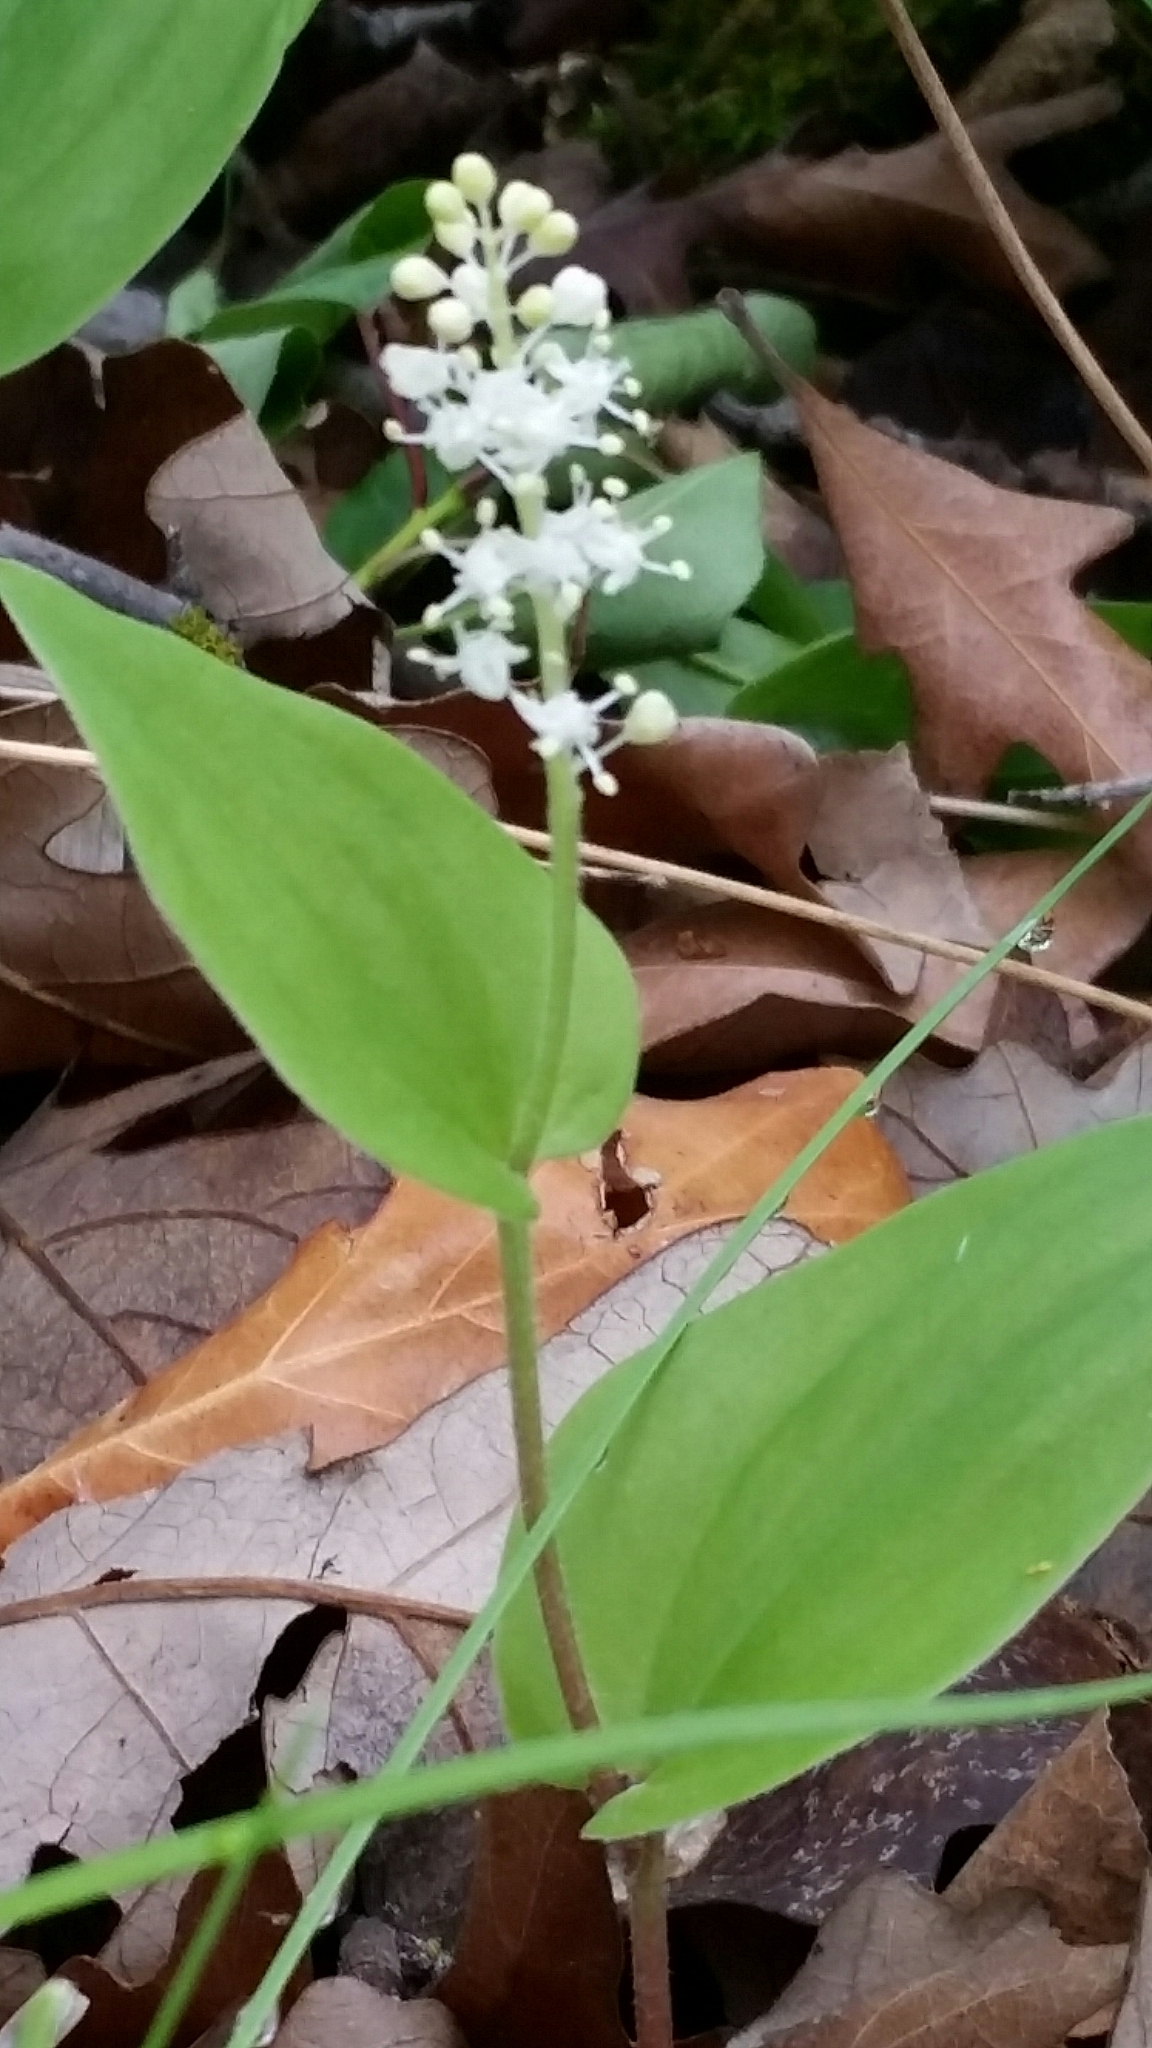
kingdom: Plantae
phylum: Tracheophyta
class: Liliopsida
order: Asparagales
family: Asparagaceae
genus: Maianthemum
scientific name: Maianthemum canadense
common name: False lily-of-the-valley
